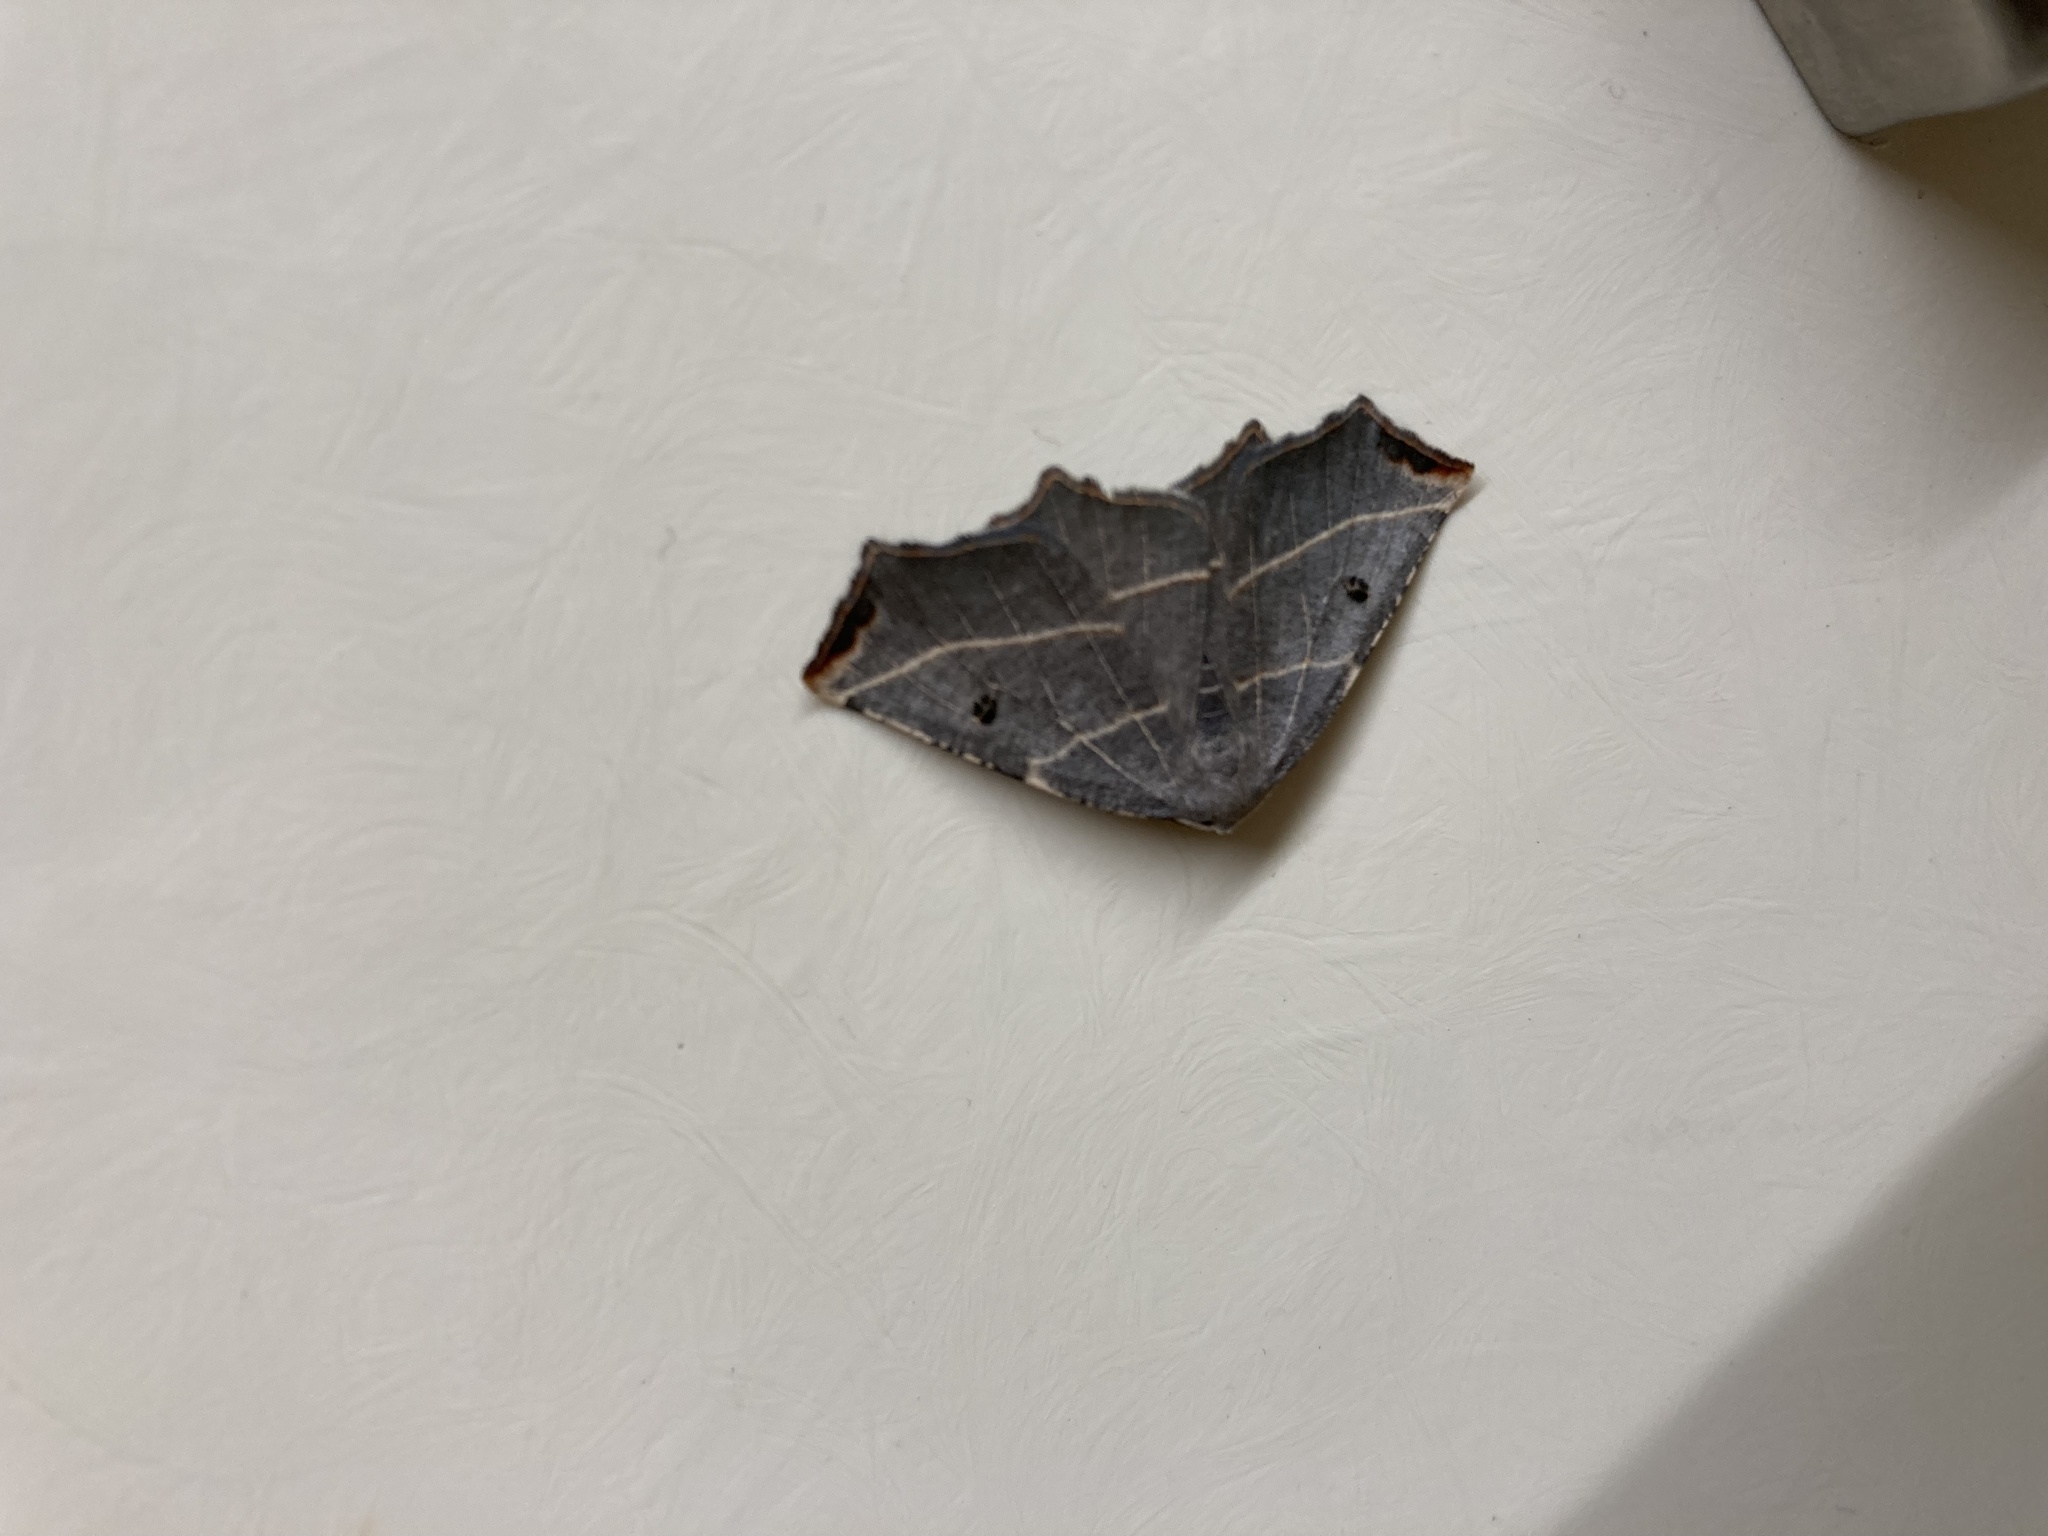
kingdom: Animalia
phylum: Arthropoda
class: Insecta
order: Lepidoptera
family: Geometridae
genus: Metanema
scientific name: Metanema inatomaria
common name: Pale metanema
